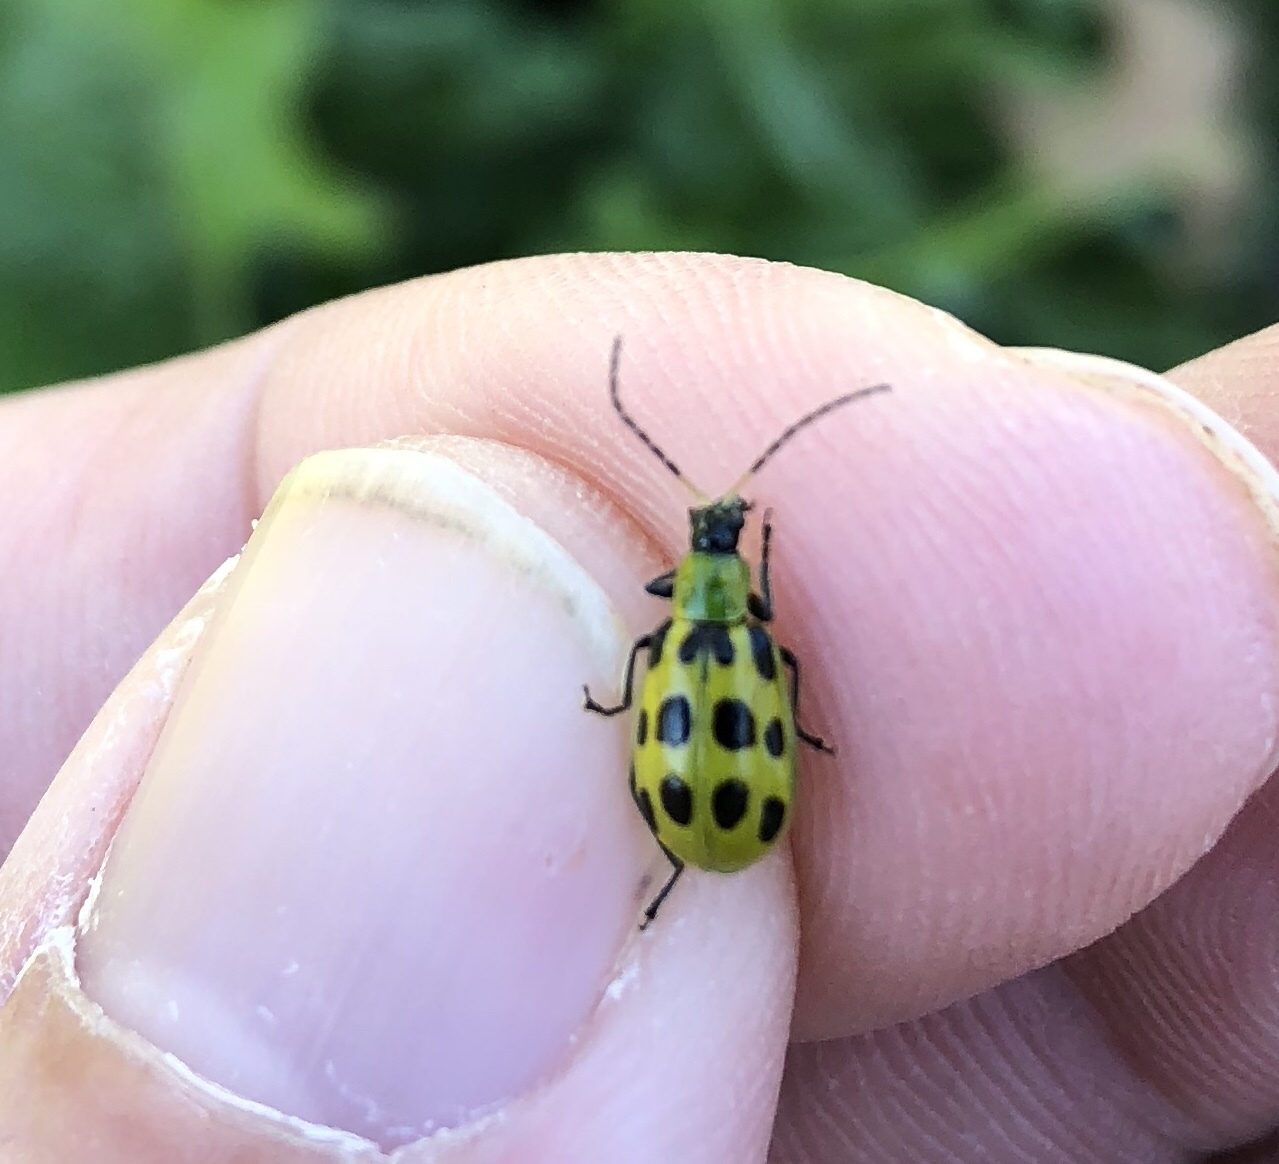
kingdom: Animalia
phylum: Arthropoda
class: Insecta
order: Coleoptera
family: Chrysomelidae
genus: Diabrotica
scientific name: Diabrotica undecimpunctata
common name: Spotted cucumber beetle
